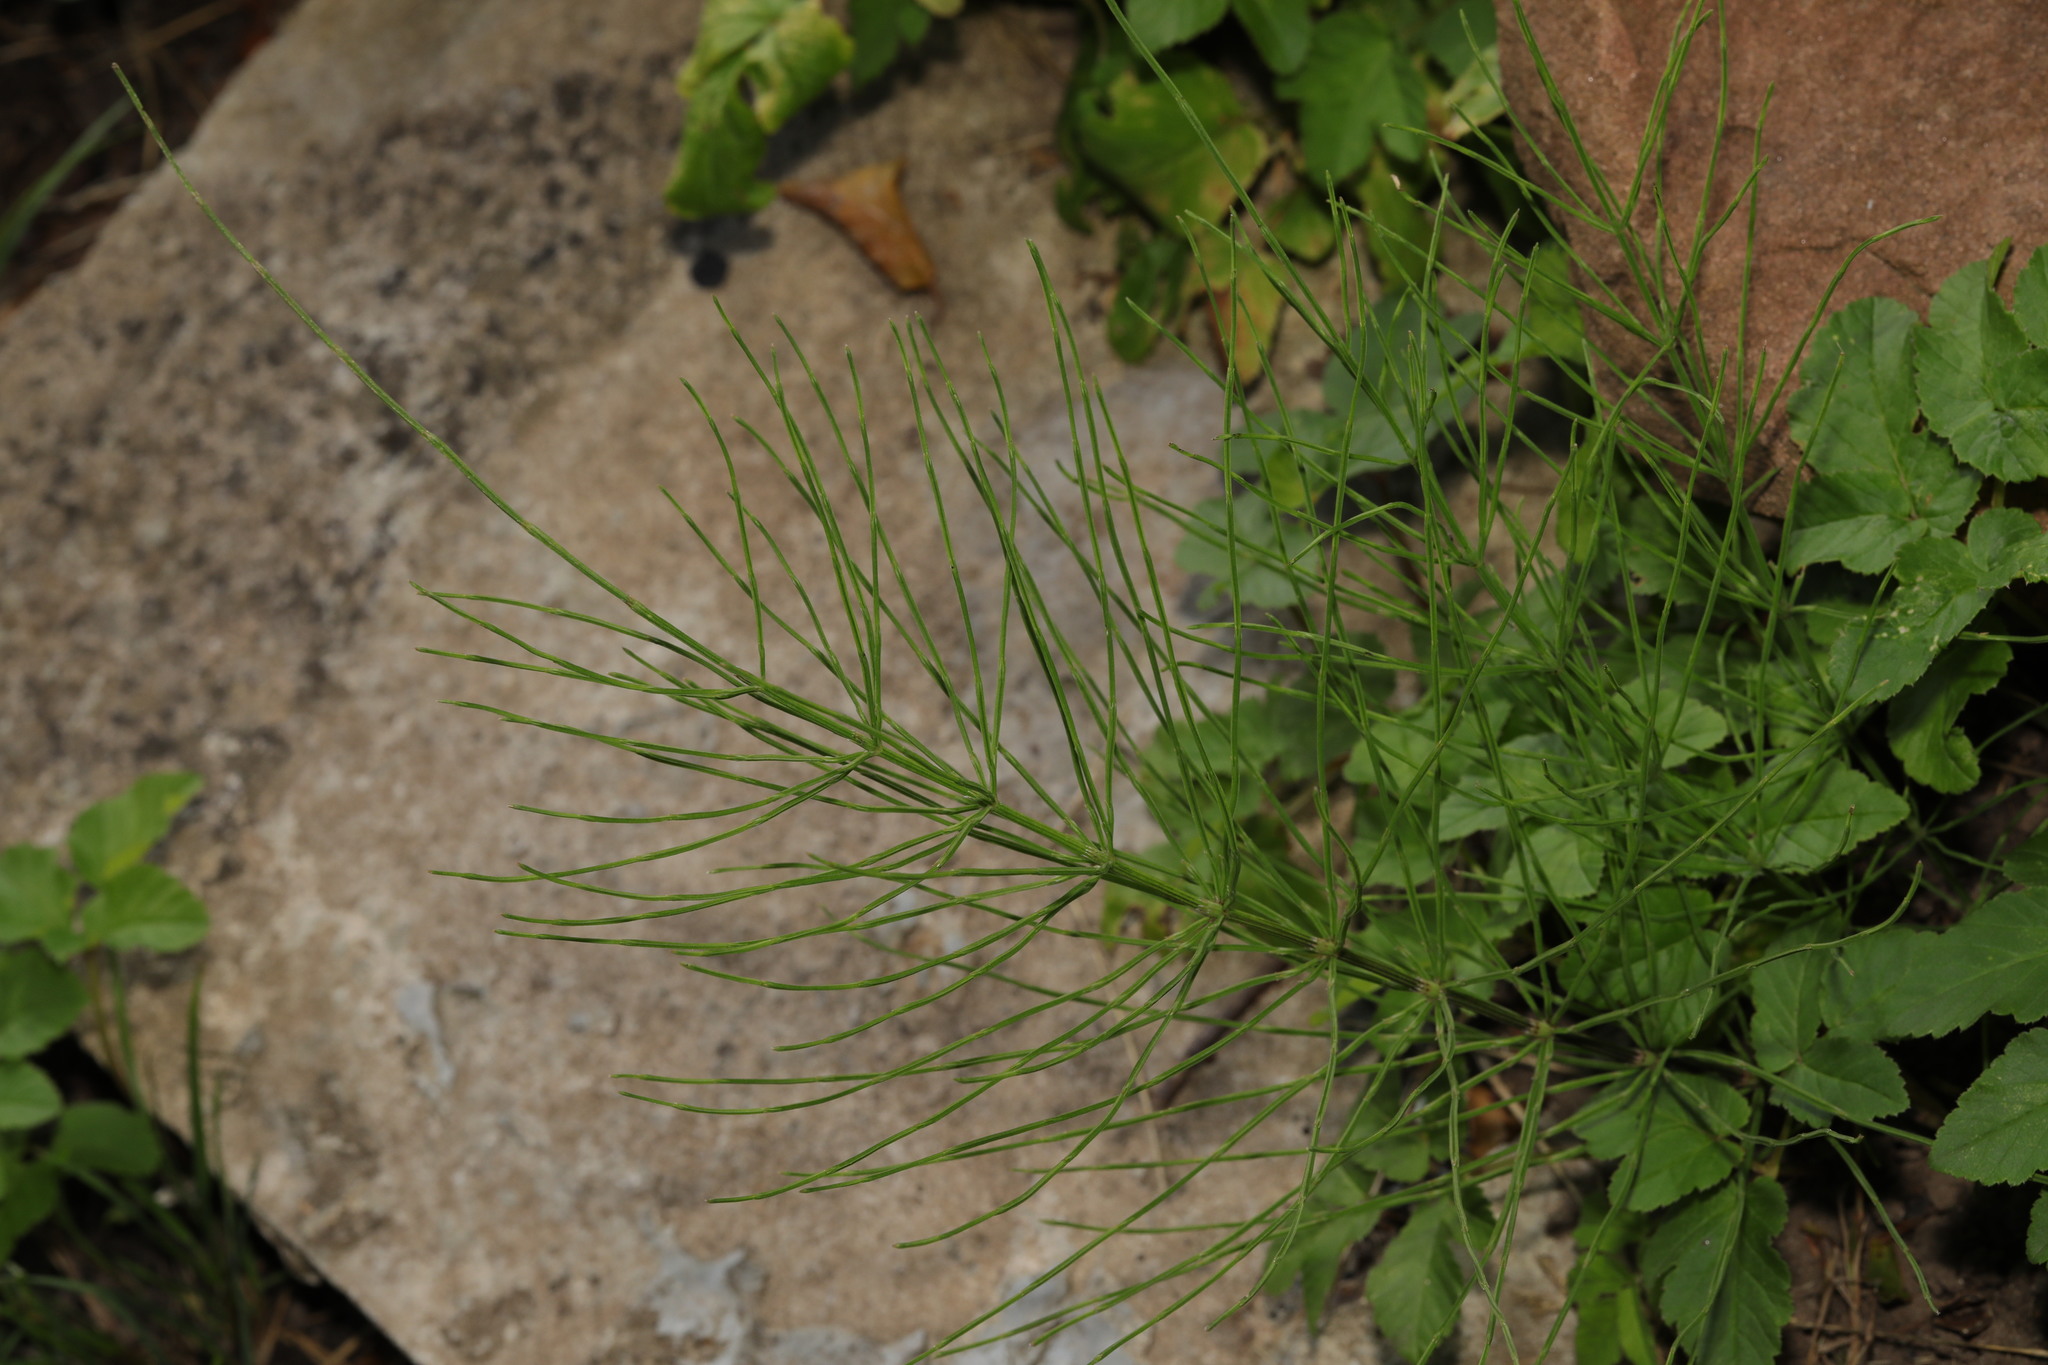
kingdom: Plantae
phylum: Tracheophyta
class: Polypodiopsida
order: Equisetales
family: Equisetaceae
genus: Equisetum
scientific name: Equisetum arvense
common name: Field horsetail
